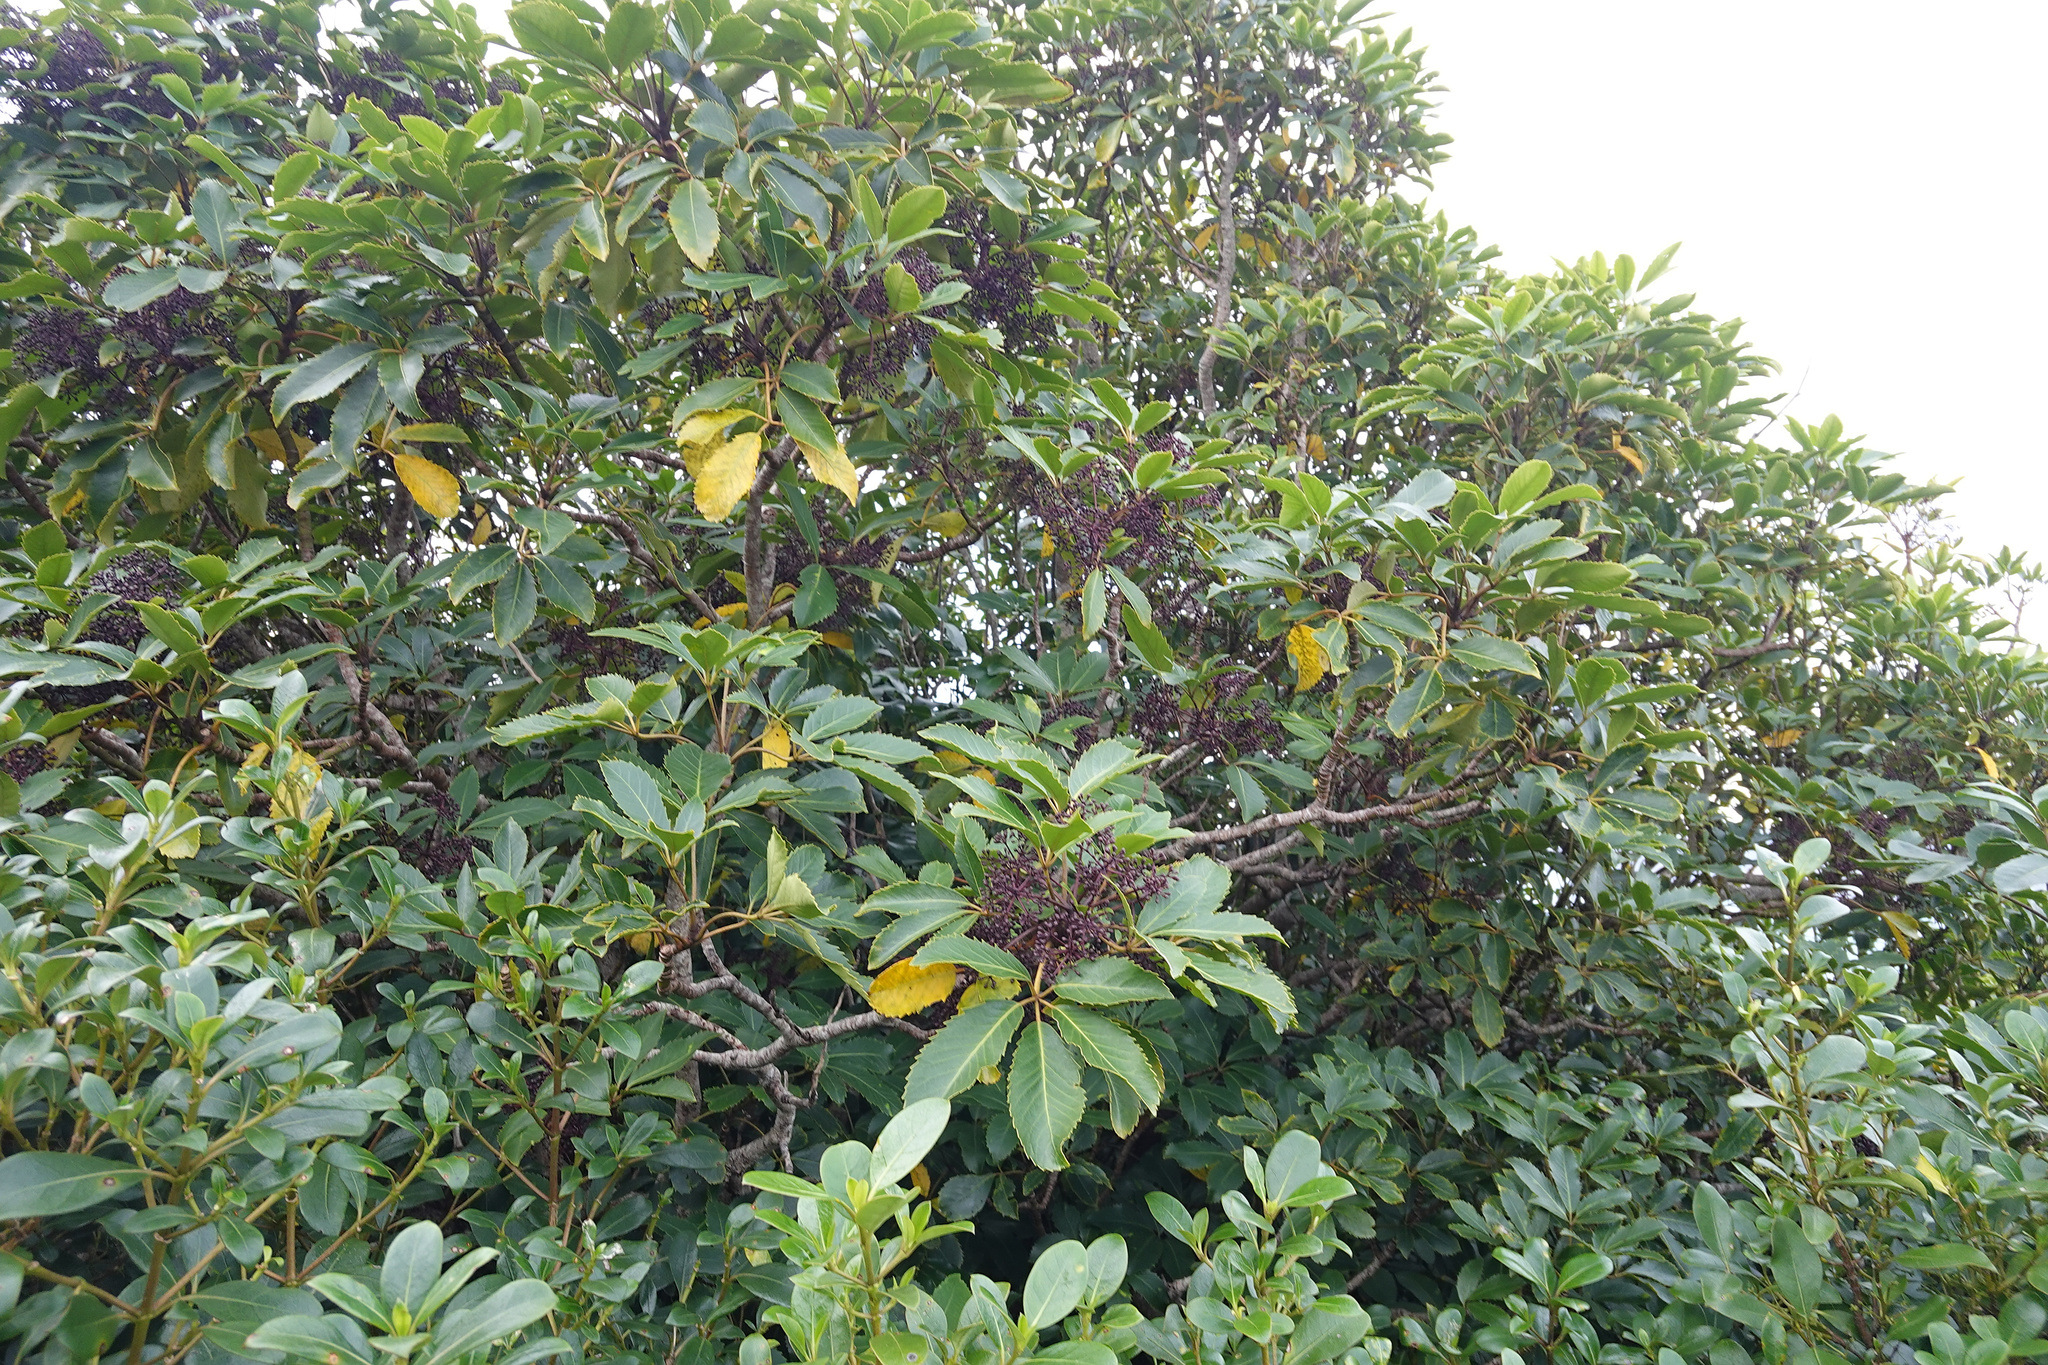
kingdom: Plantae
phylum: Tracheophyta
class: Magnoliopsida
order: Apiales
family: Araliaceae
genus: Neopanax
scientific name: Neopanax arboreus
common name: Five-fingers
